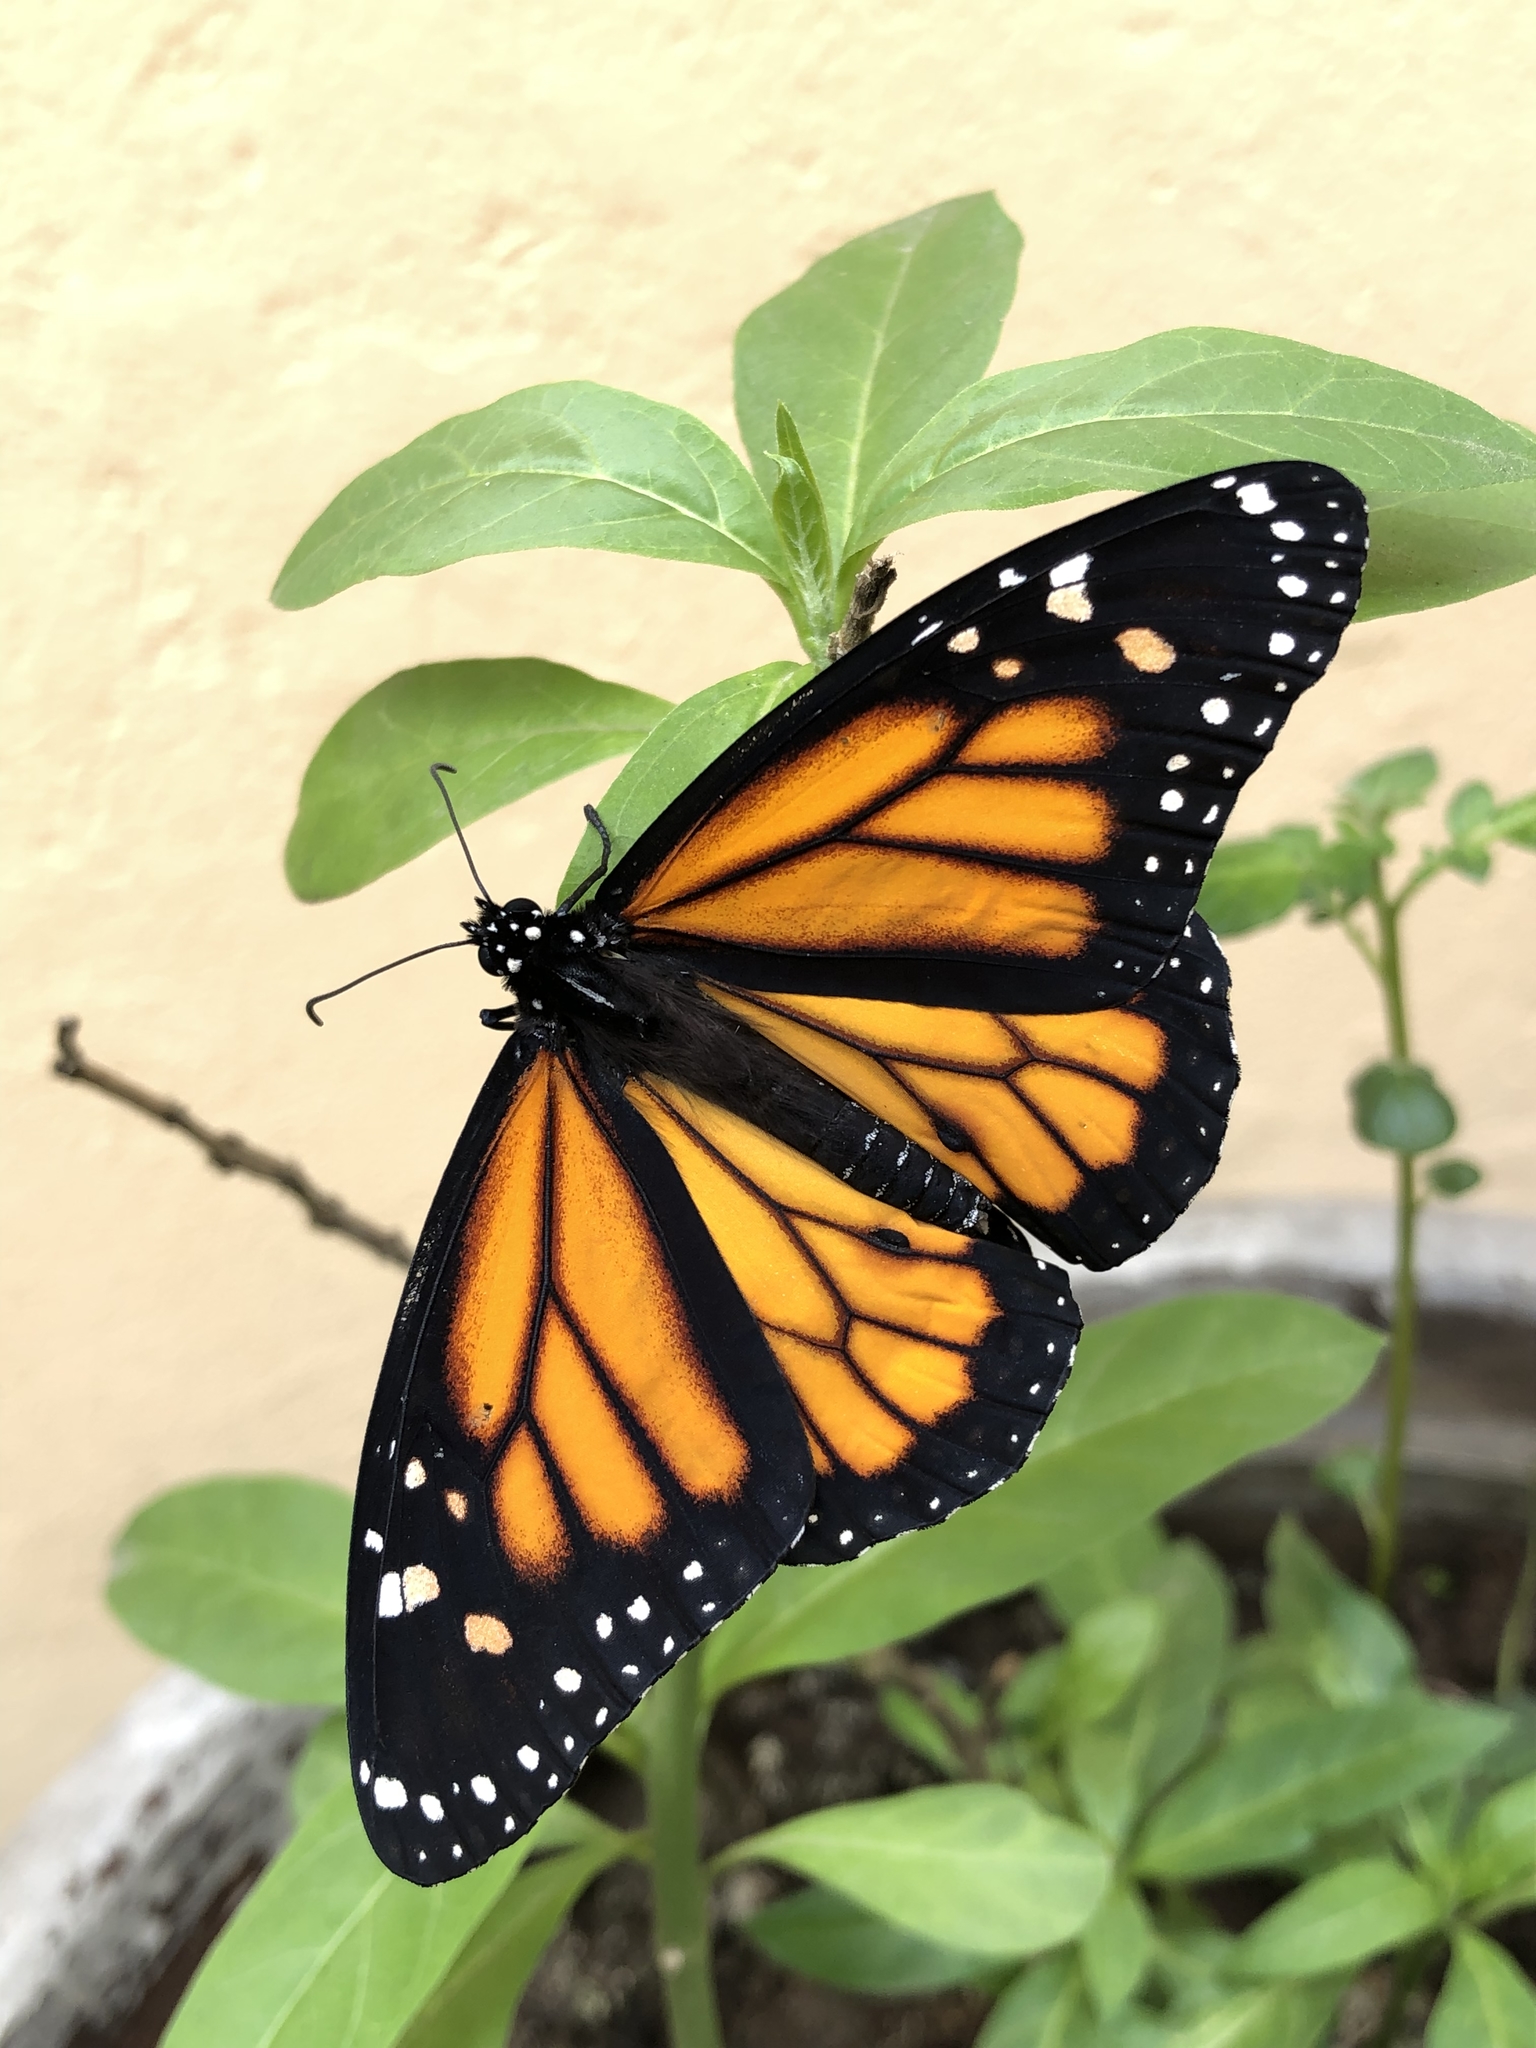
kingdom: Animalia
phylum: Arthropoda
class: Insecta
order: Lepidoptera
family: Nymphalidae
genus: Danaus
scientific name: Danaus plexippus
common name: Monarch
